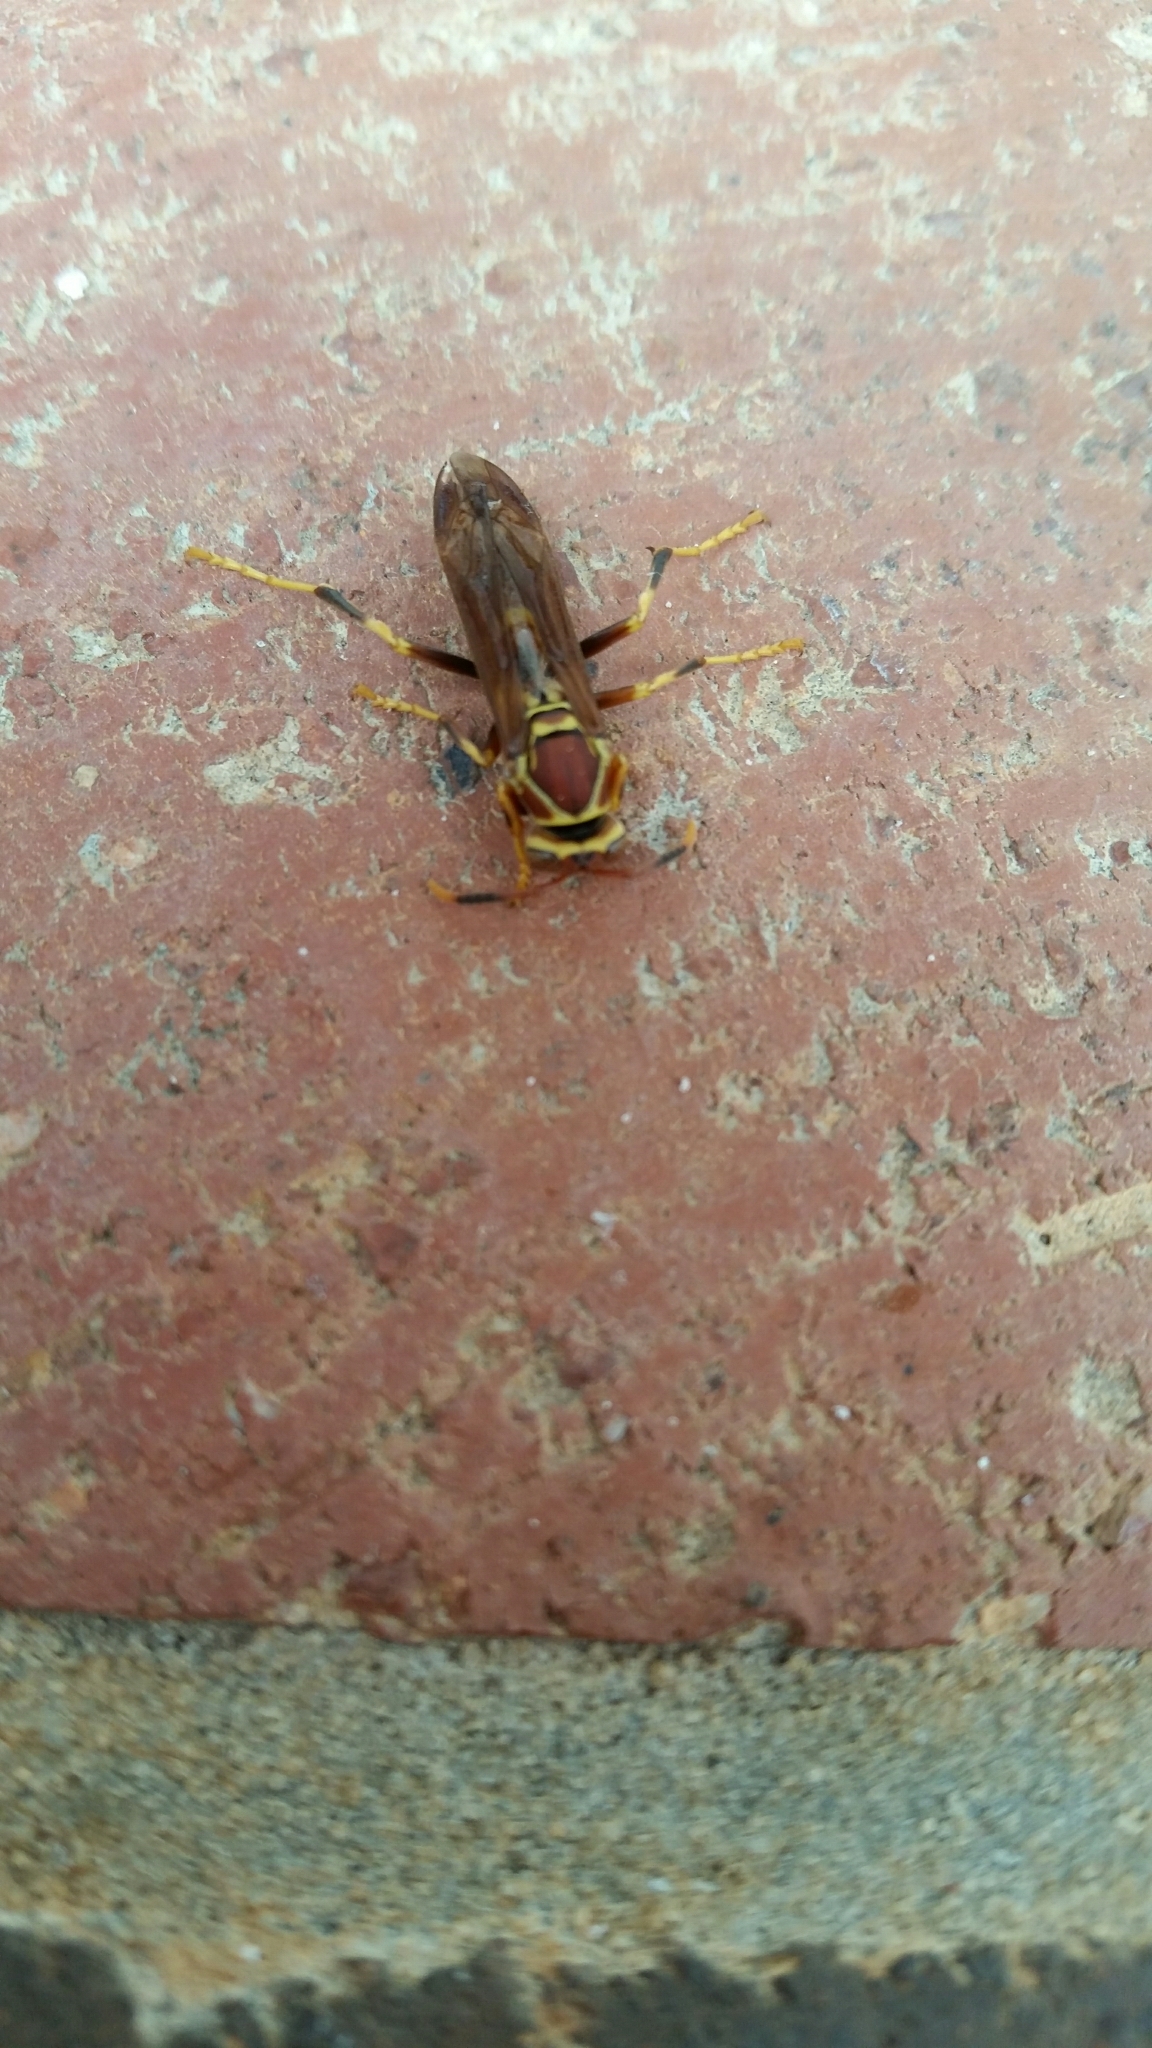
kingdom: Animalia
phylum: Arthropoda
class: Insecta
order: Hymenoptera
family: Eumenidae
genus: Polistes
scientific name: Polistes exclamans
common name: Paper wasp
